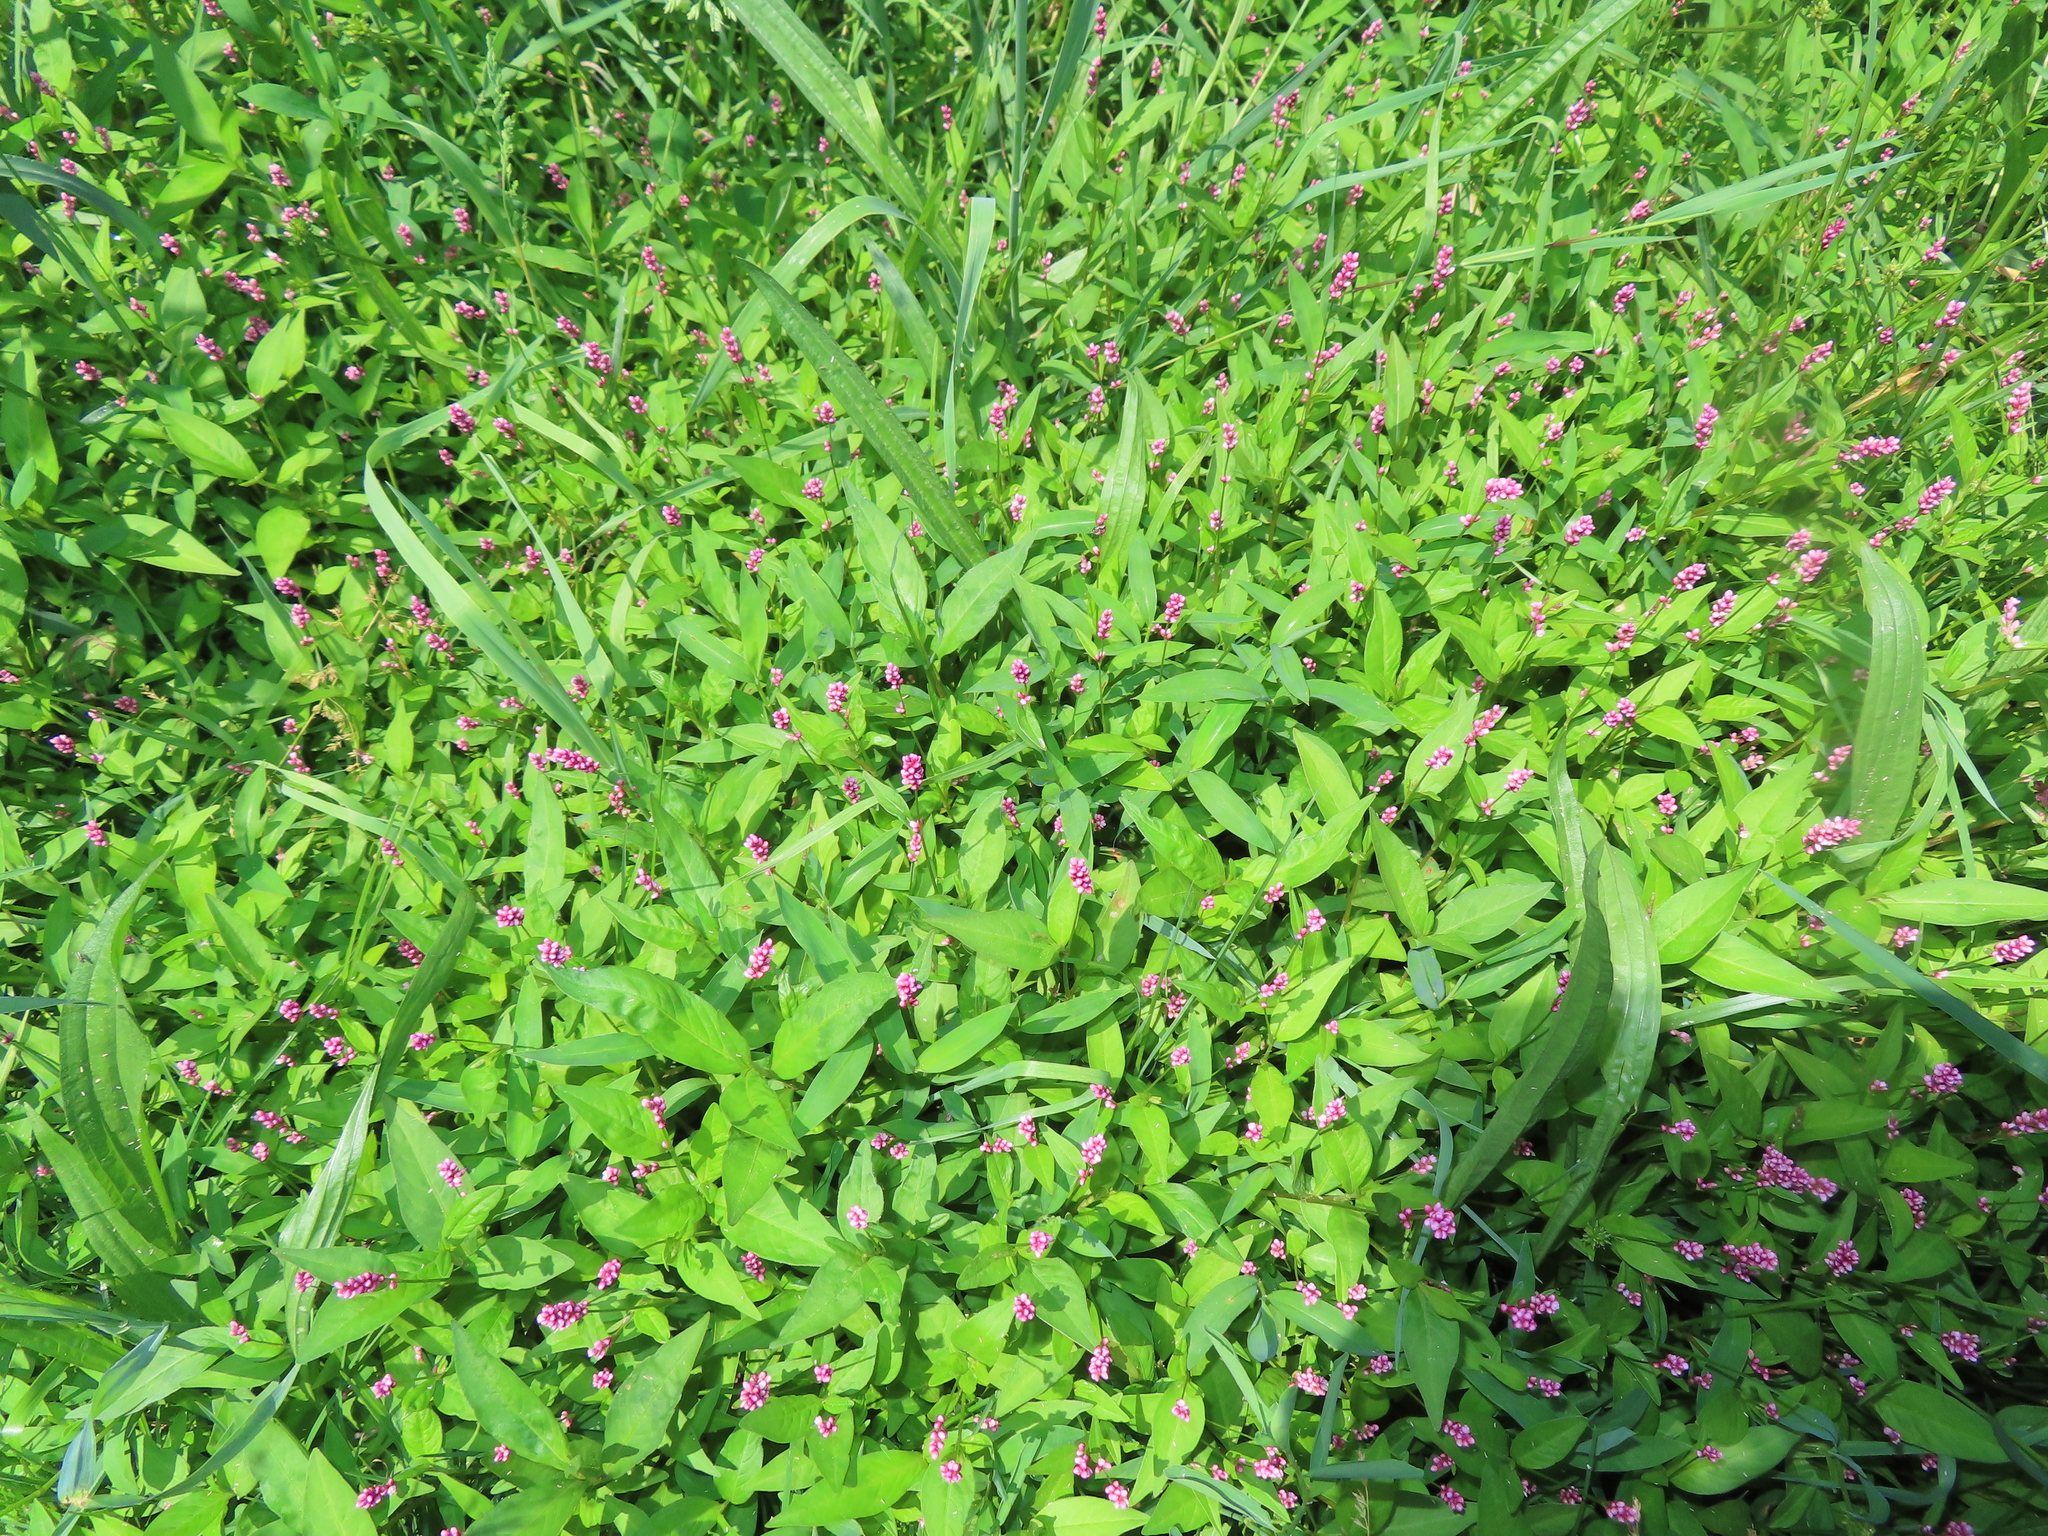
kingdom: Plantae
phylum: Tracheophyta
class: Magnoliopsida
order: Caryophyllales
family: Polygonaceae
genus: Persicaria
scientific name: Persicaria longiseta
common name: Bristly lady's-thumb
